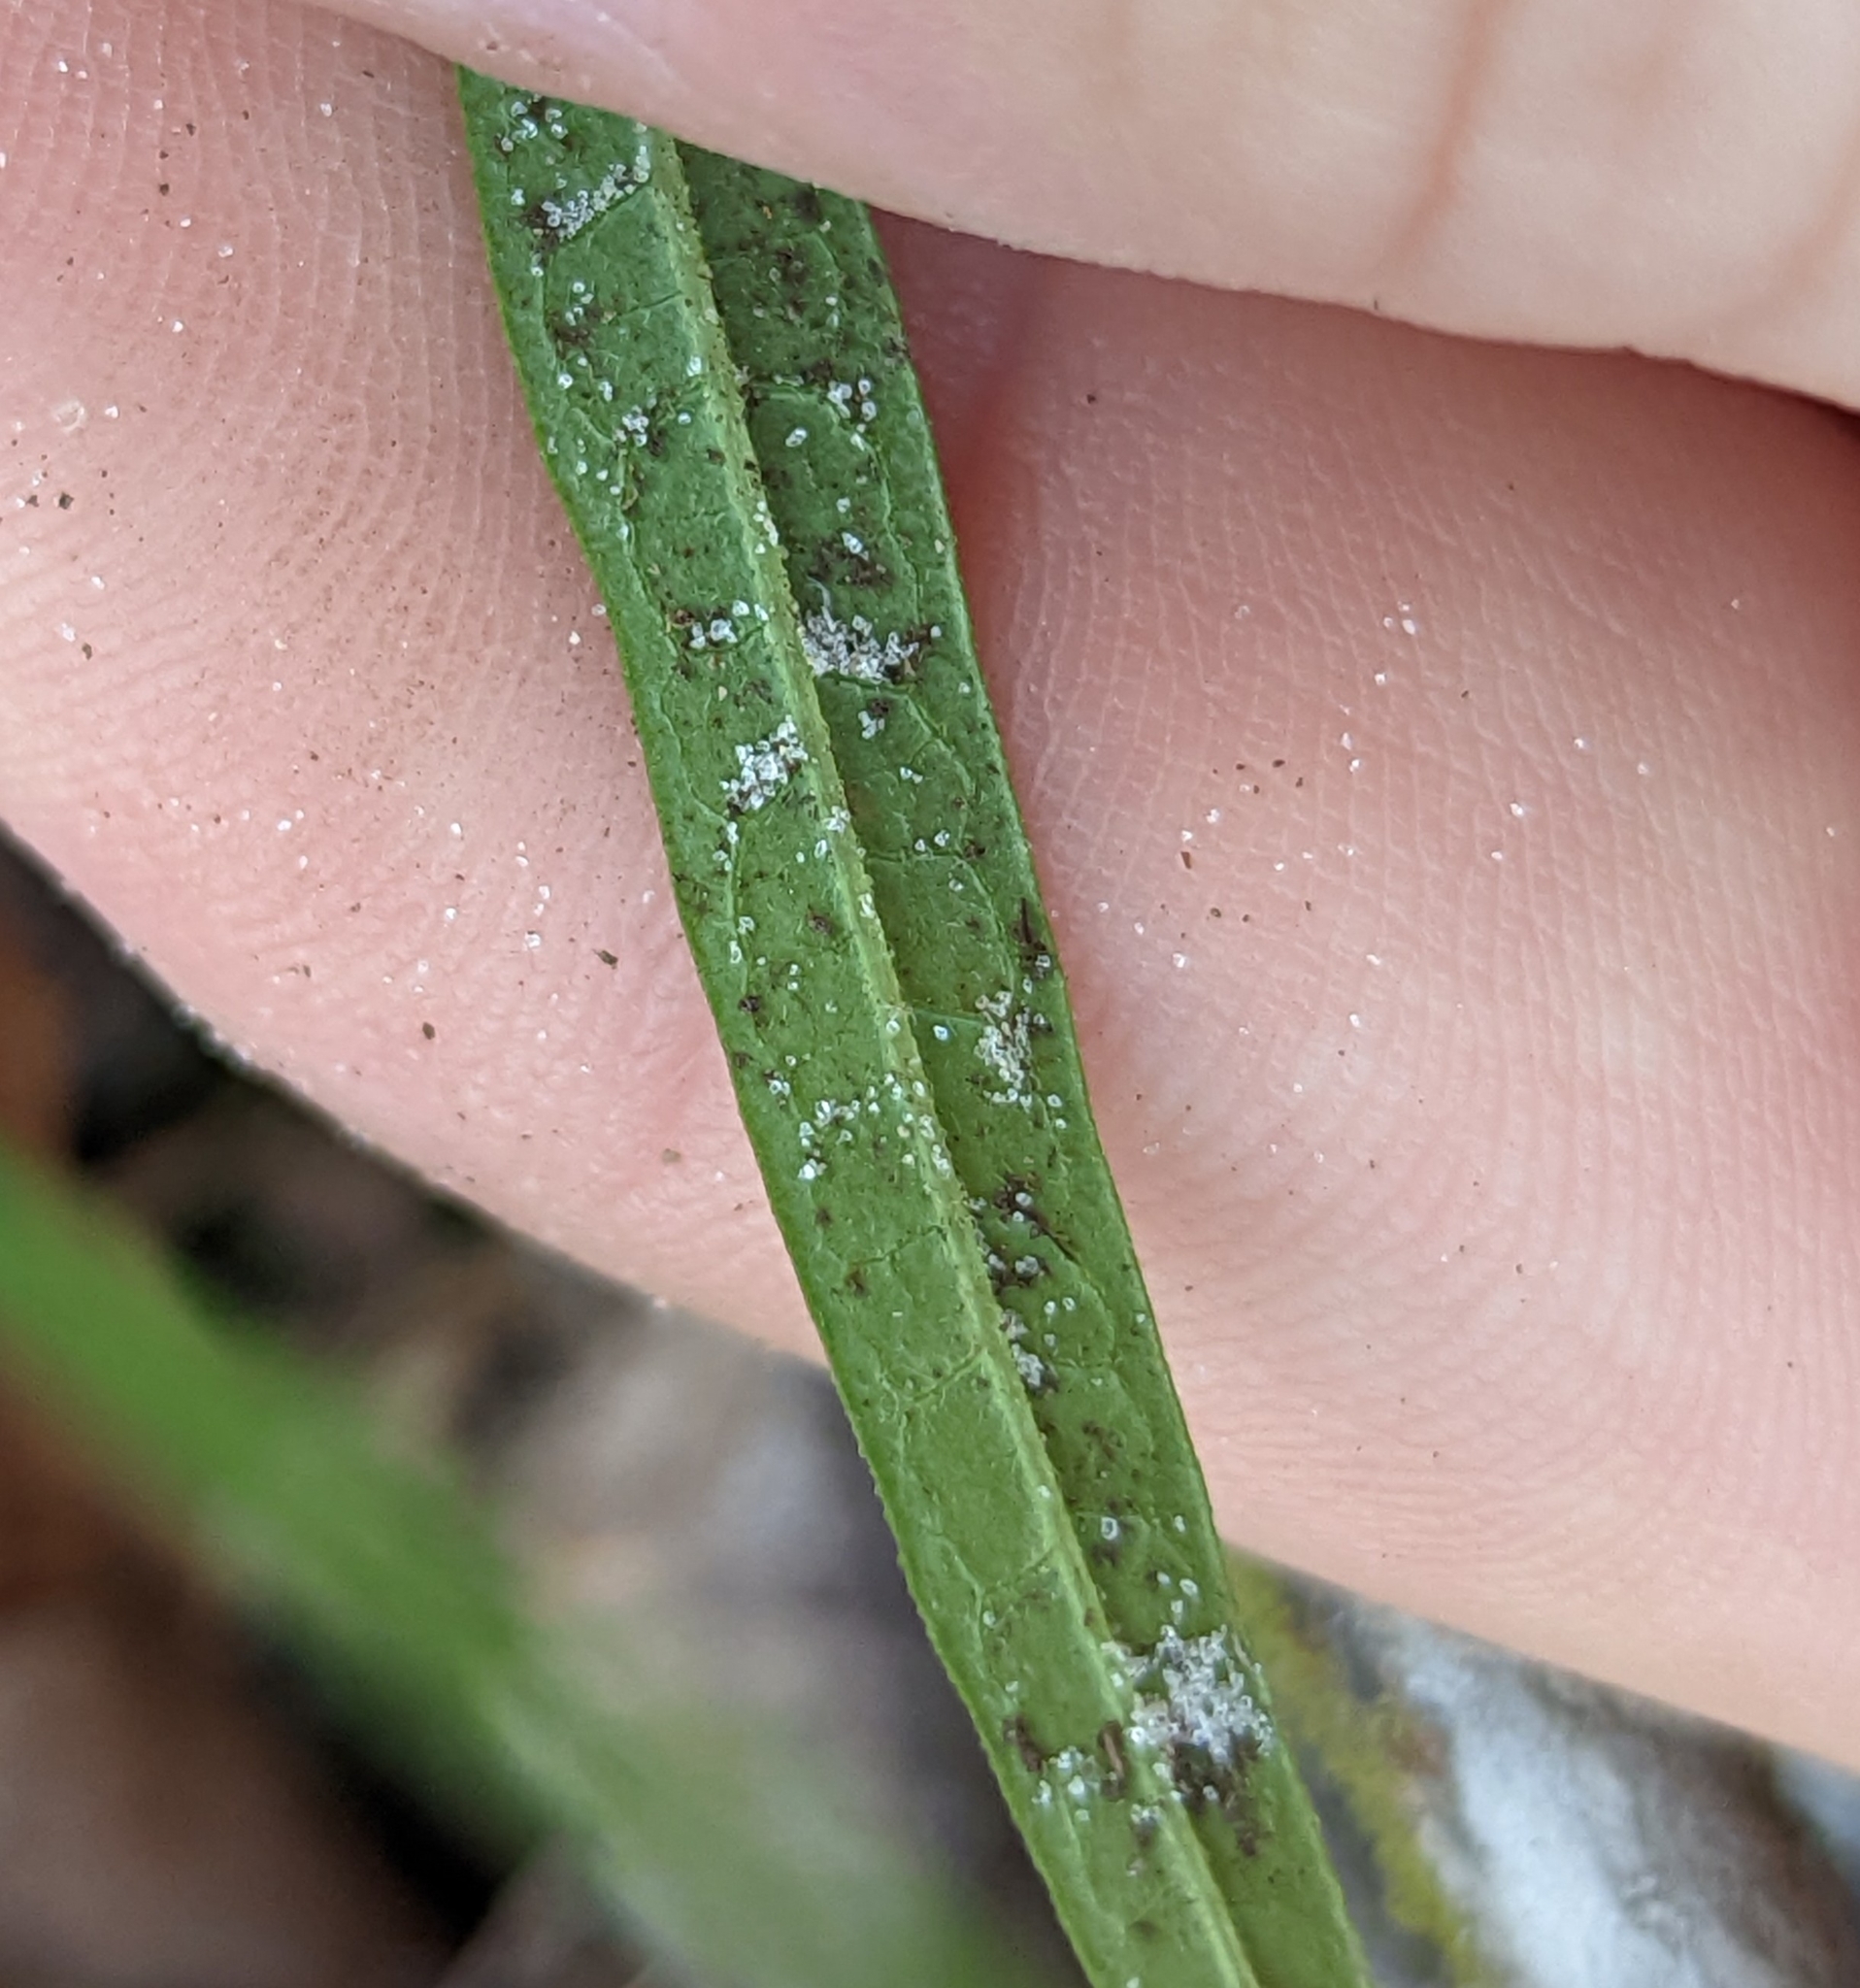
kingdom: Plantae
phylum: Tracheophyta
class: Magnoliopsida
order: Piperales
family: Aristolochiaceae
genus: Endodeca
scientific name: Endodeca serpentaria
